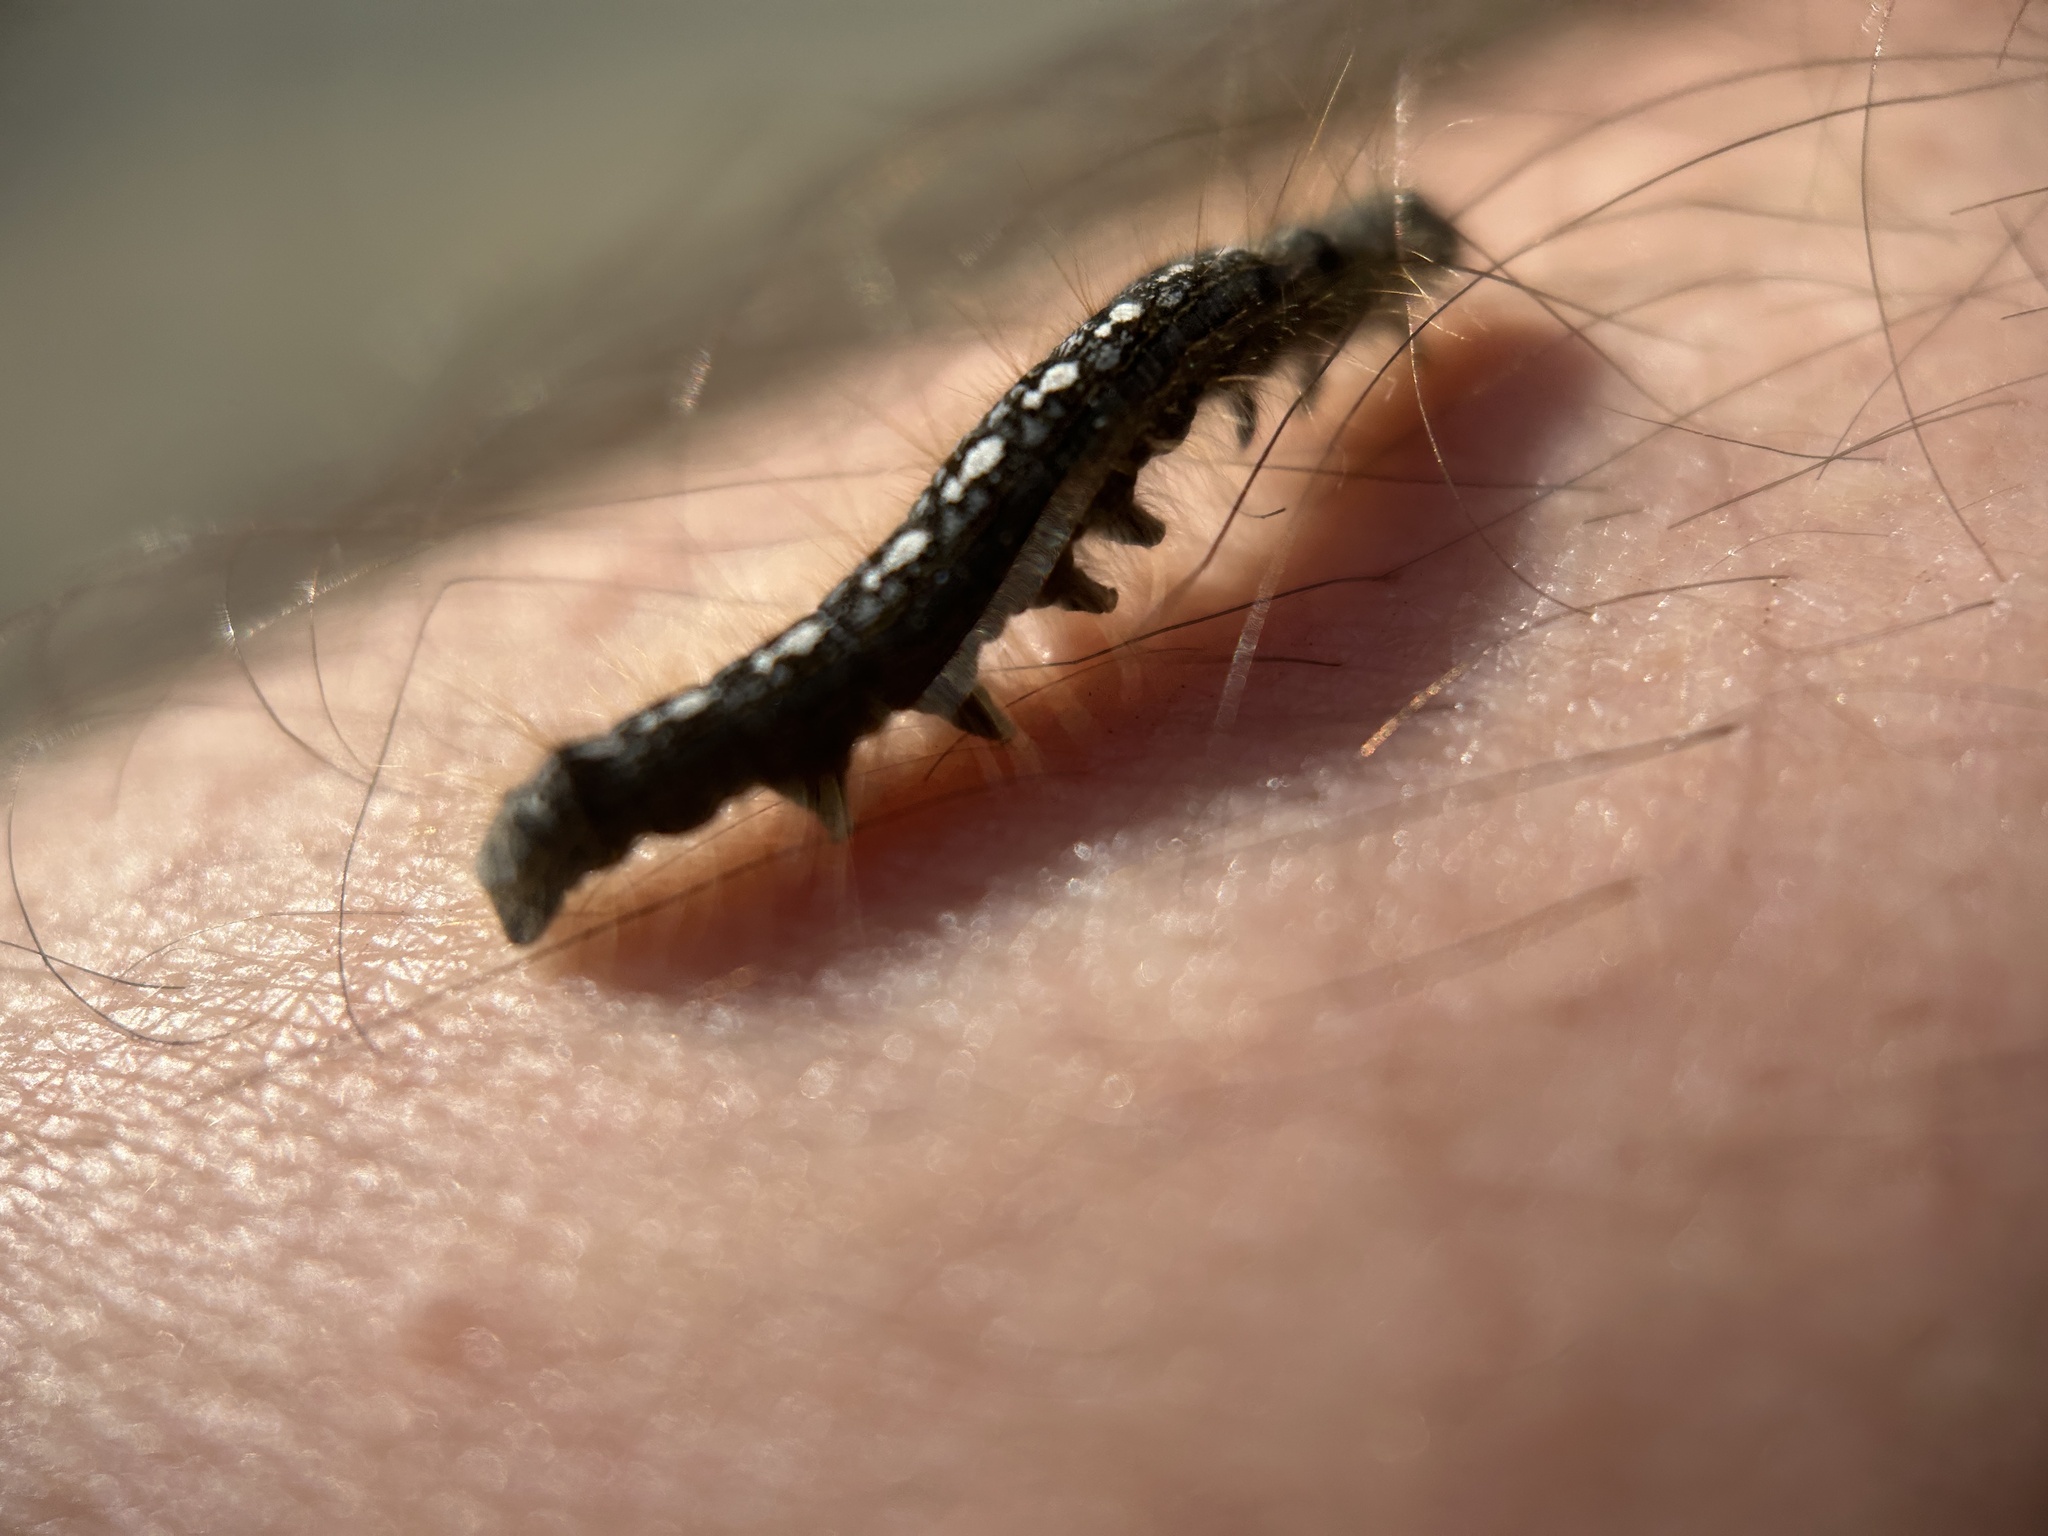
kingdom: Animalia
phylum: Arthropoda
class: Insecta
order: Lepidoptera
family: Lasiocampidae
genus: Malacosoma
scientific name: Malacosoma disstria
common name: Forest tent caterpillar
